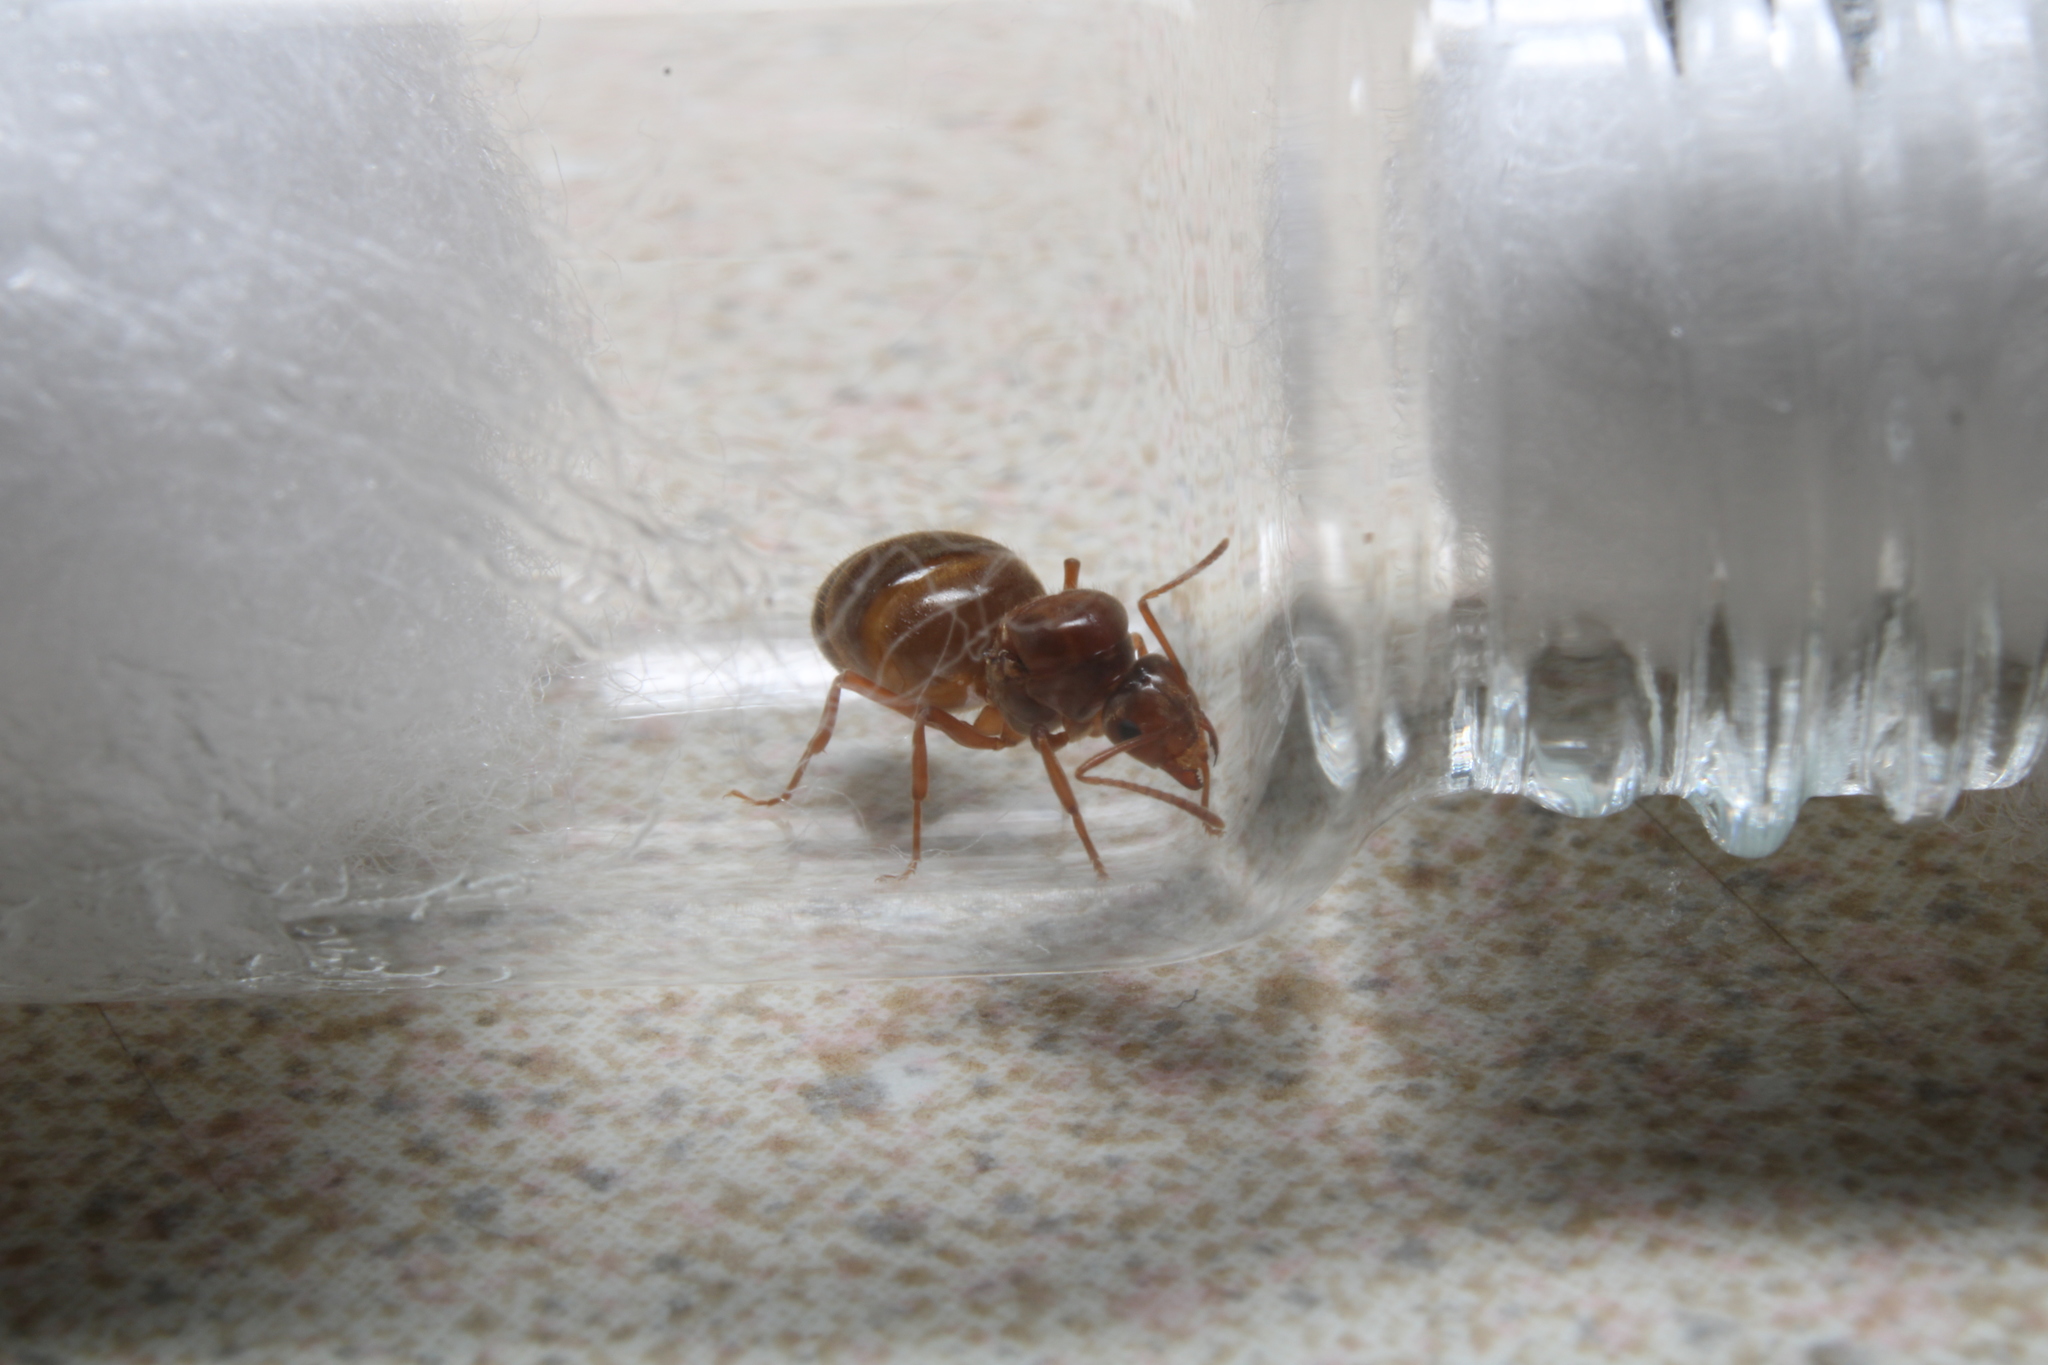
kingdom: Animalia
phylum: Arthropoda
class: Insecta
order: Hymenoptera
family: Formicidae
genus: Prenolepis
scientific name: Prenolepis imparis
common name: Small honey ant
